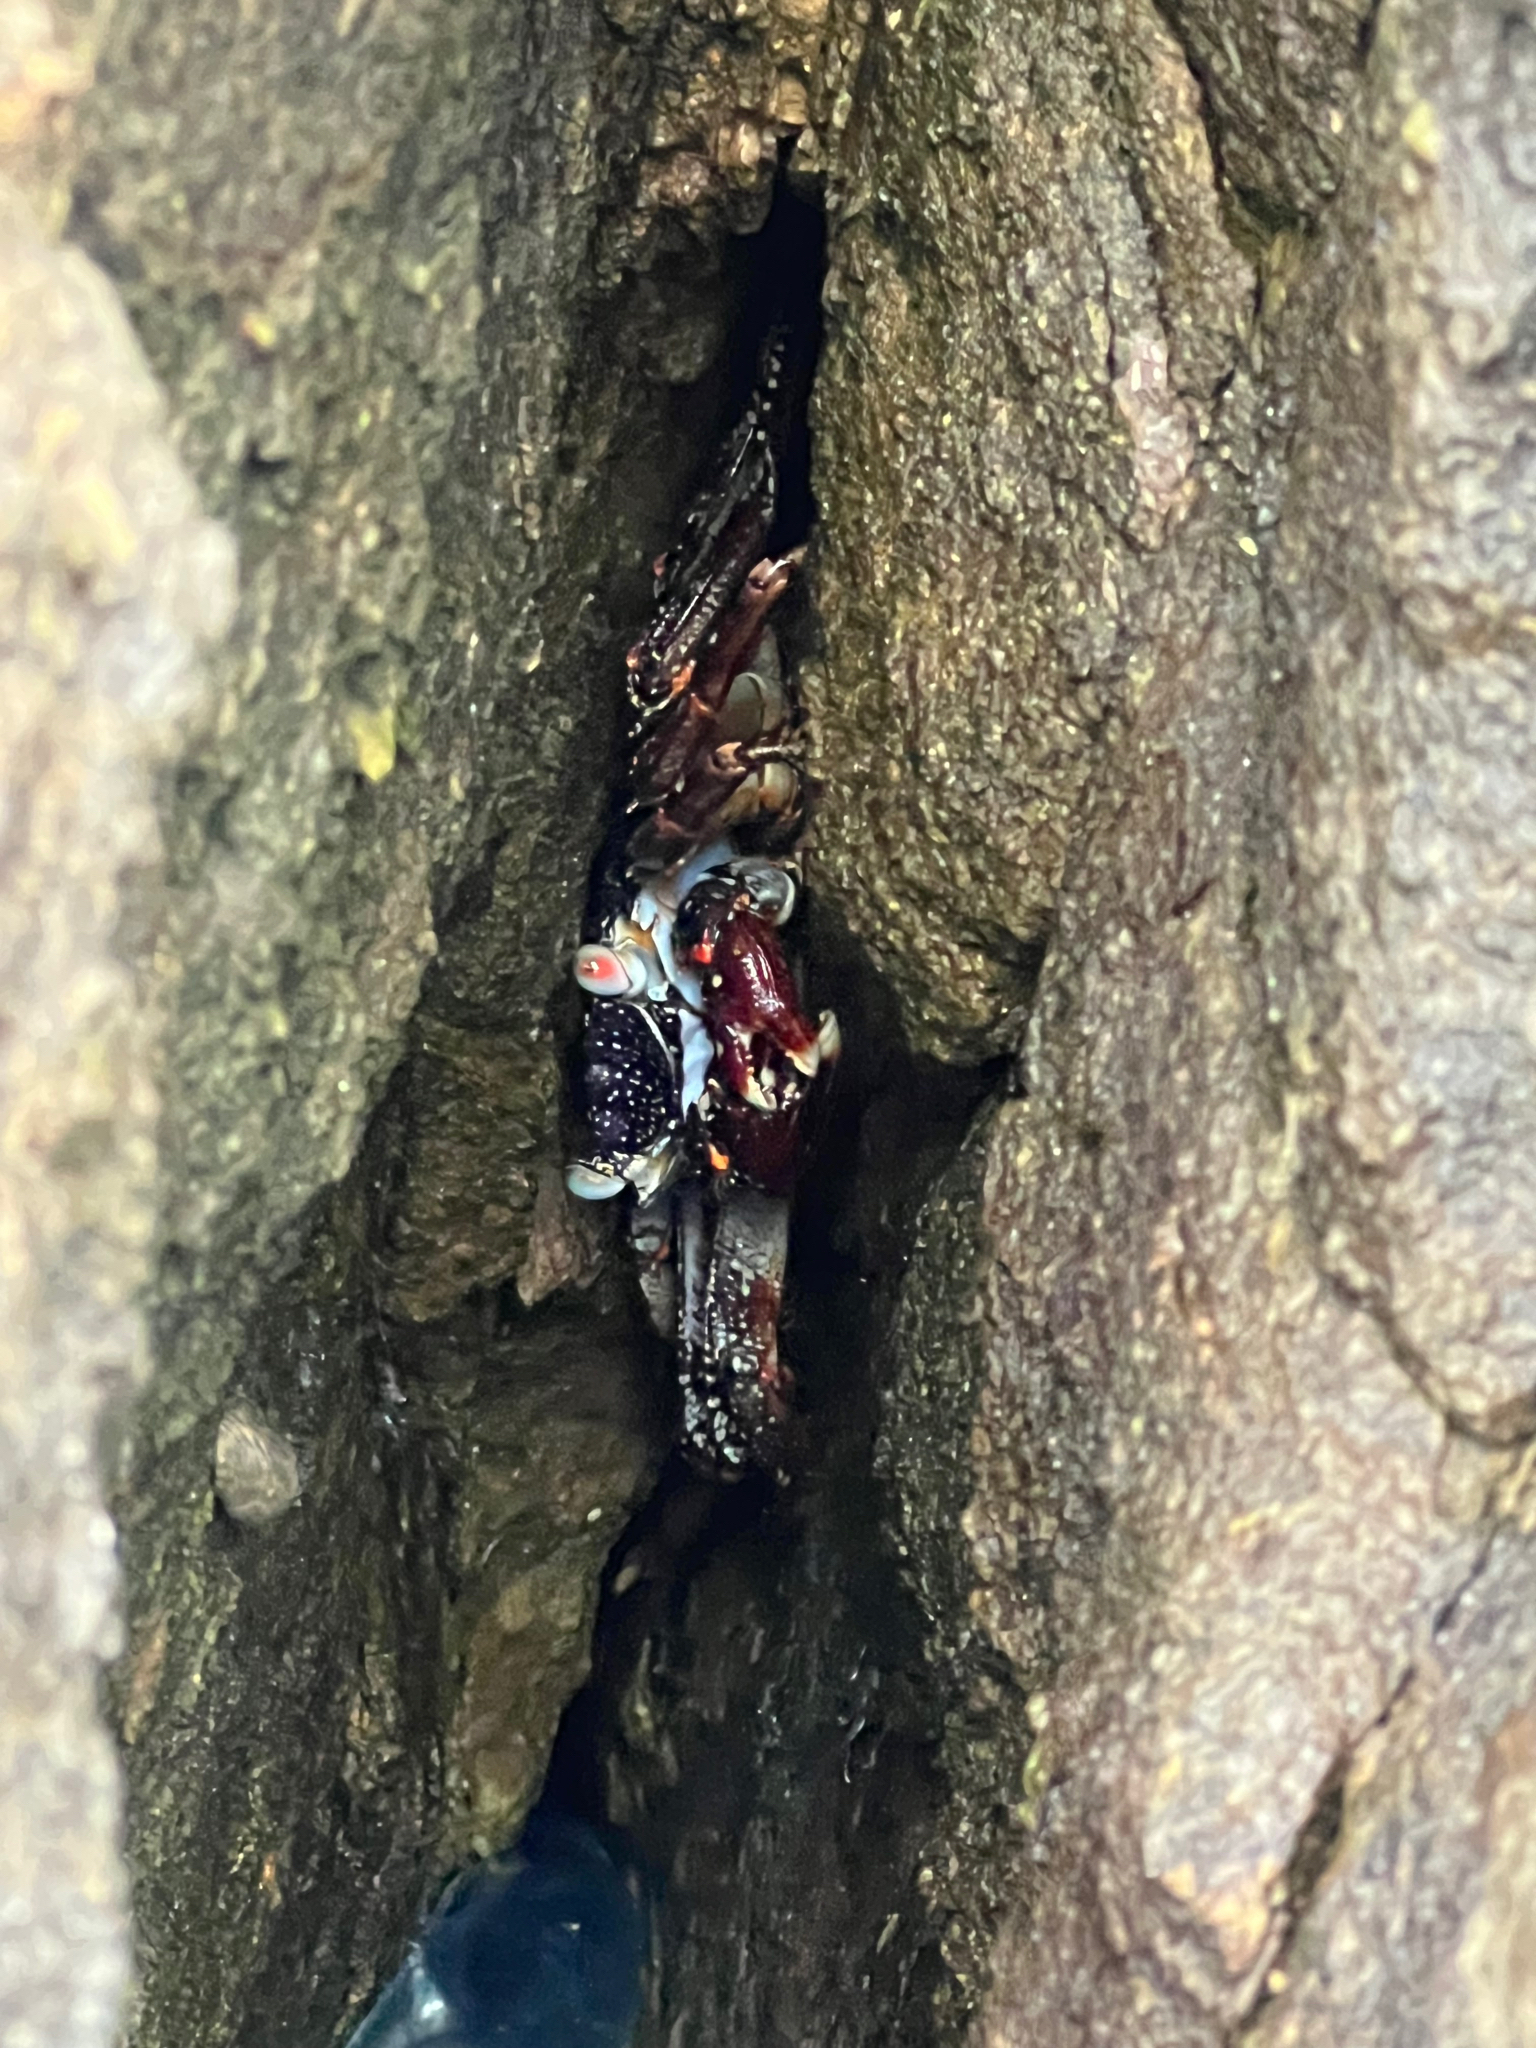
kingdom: Animalia
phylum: Arthropoda
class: Malacostraca
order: Decapoda
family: Grapsidae
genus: Grapsus
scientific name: Grapsus grapsus
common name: Sally lightfoot
